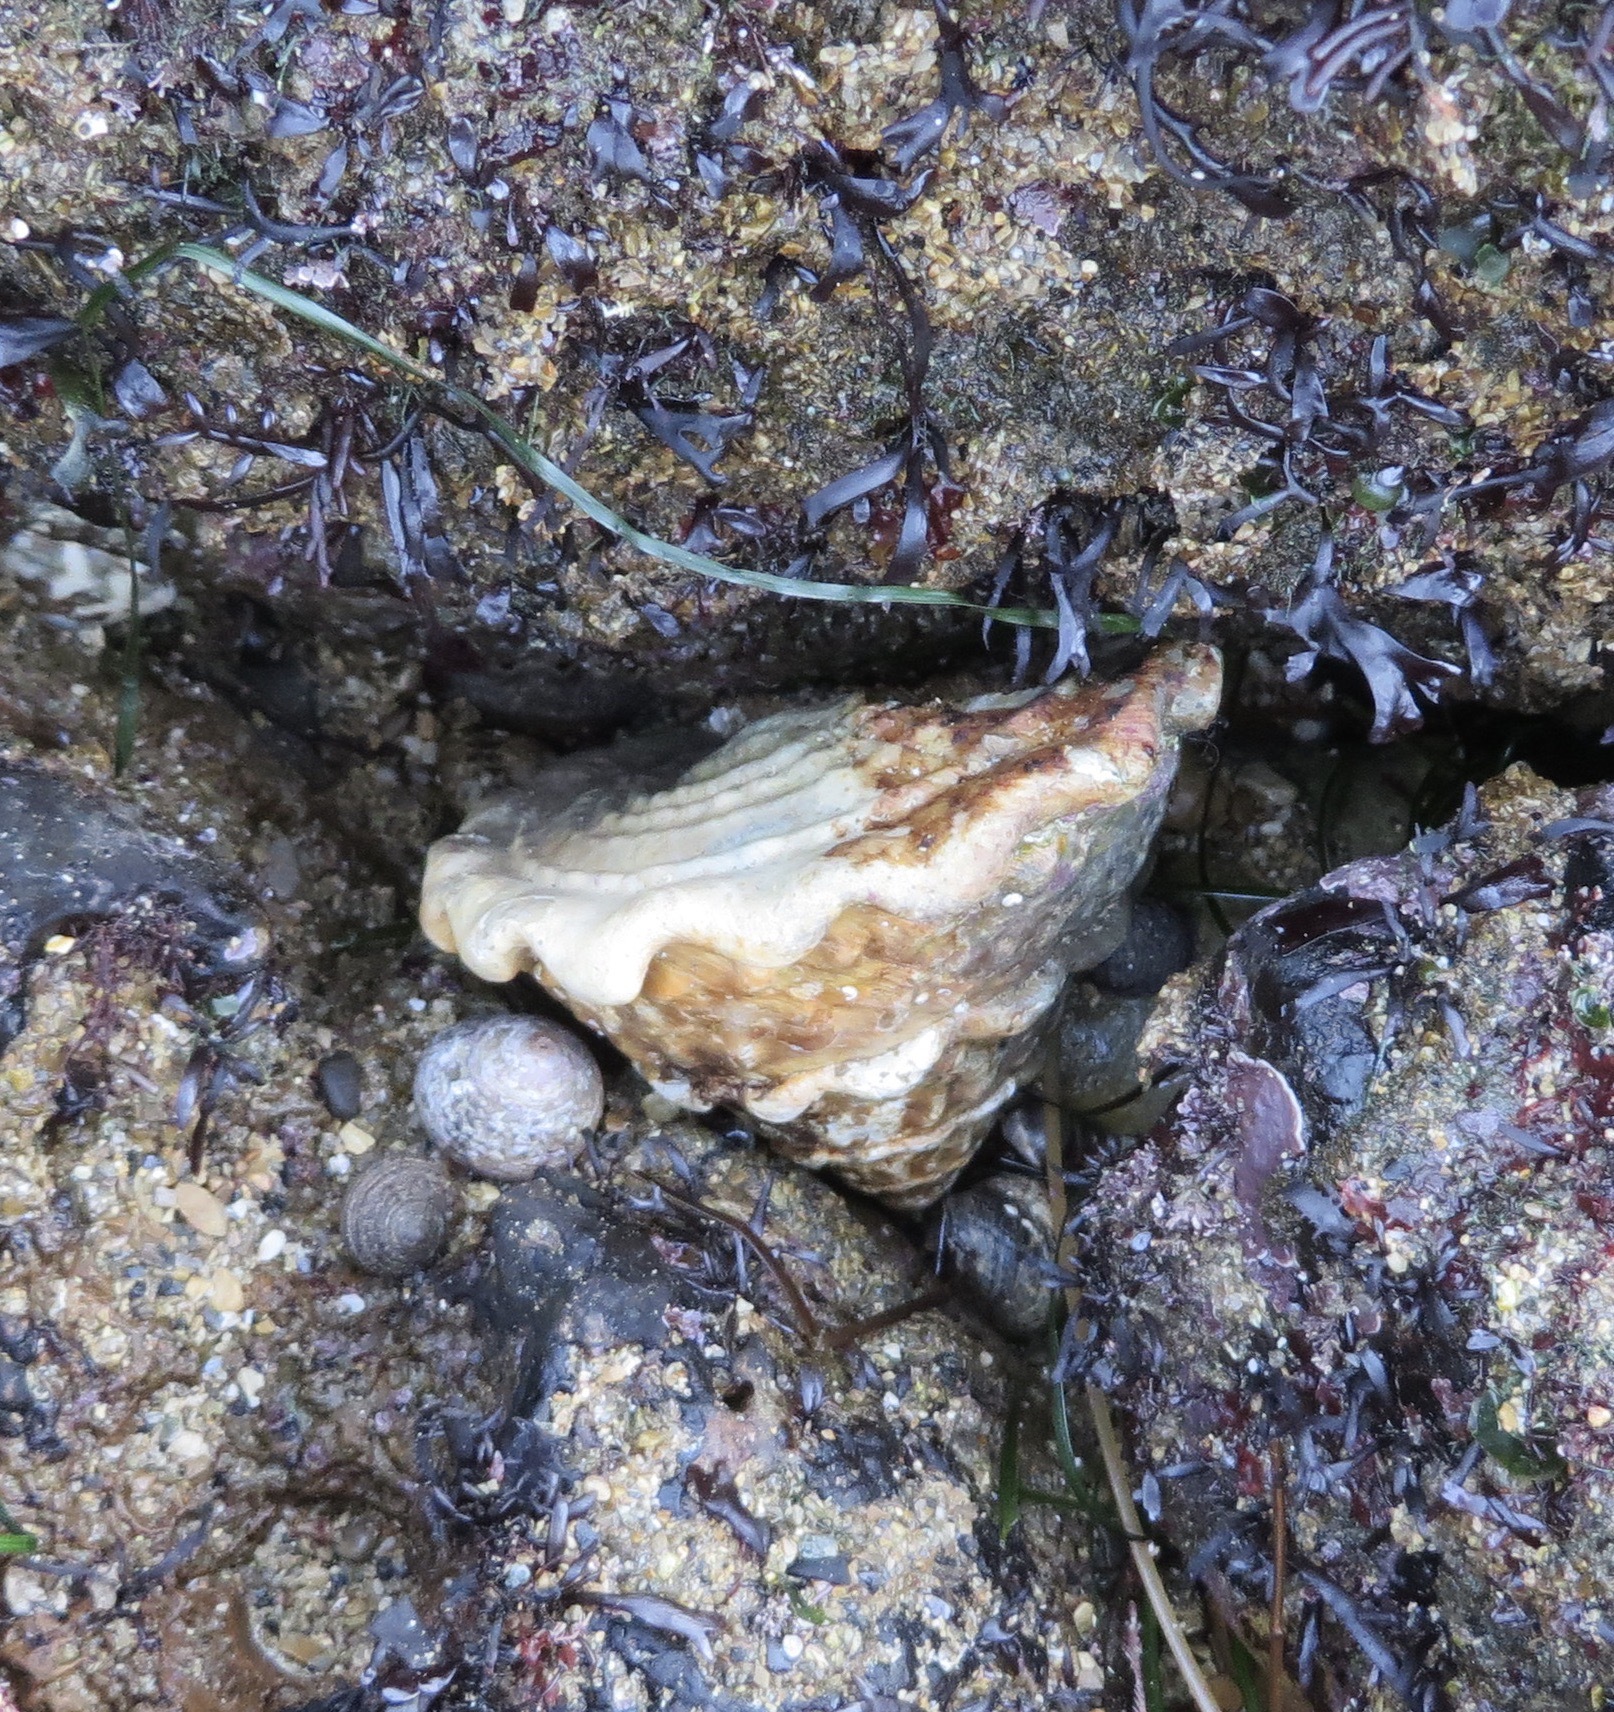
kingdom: Animalia
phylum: Mollusca
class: Gastropoda
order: Trochida
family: Turbinidae
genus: Megastraea
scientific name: Megastraea undosa
